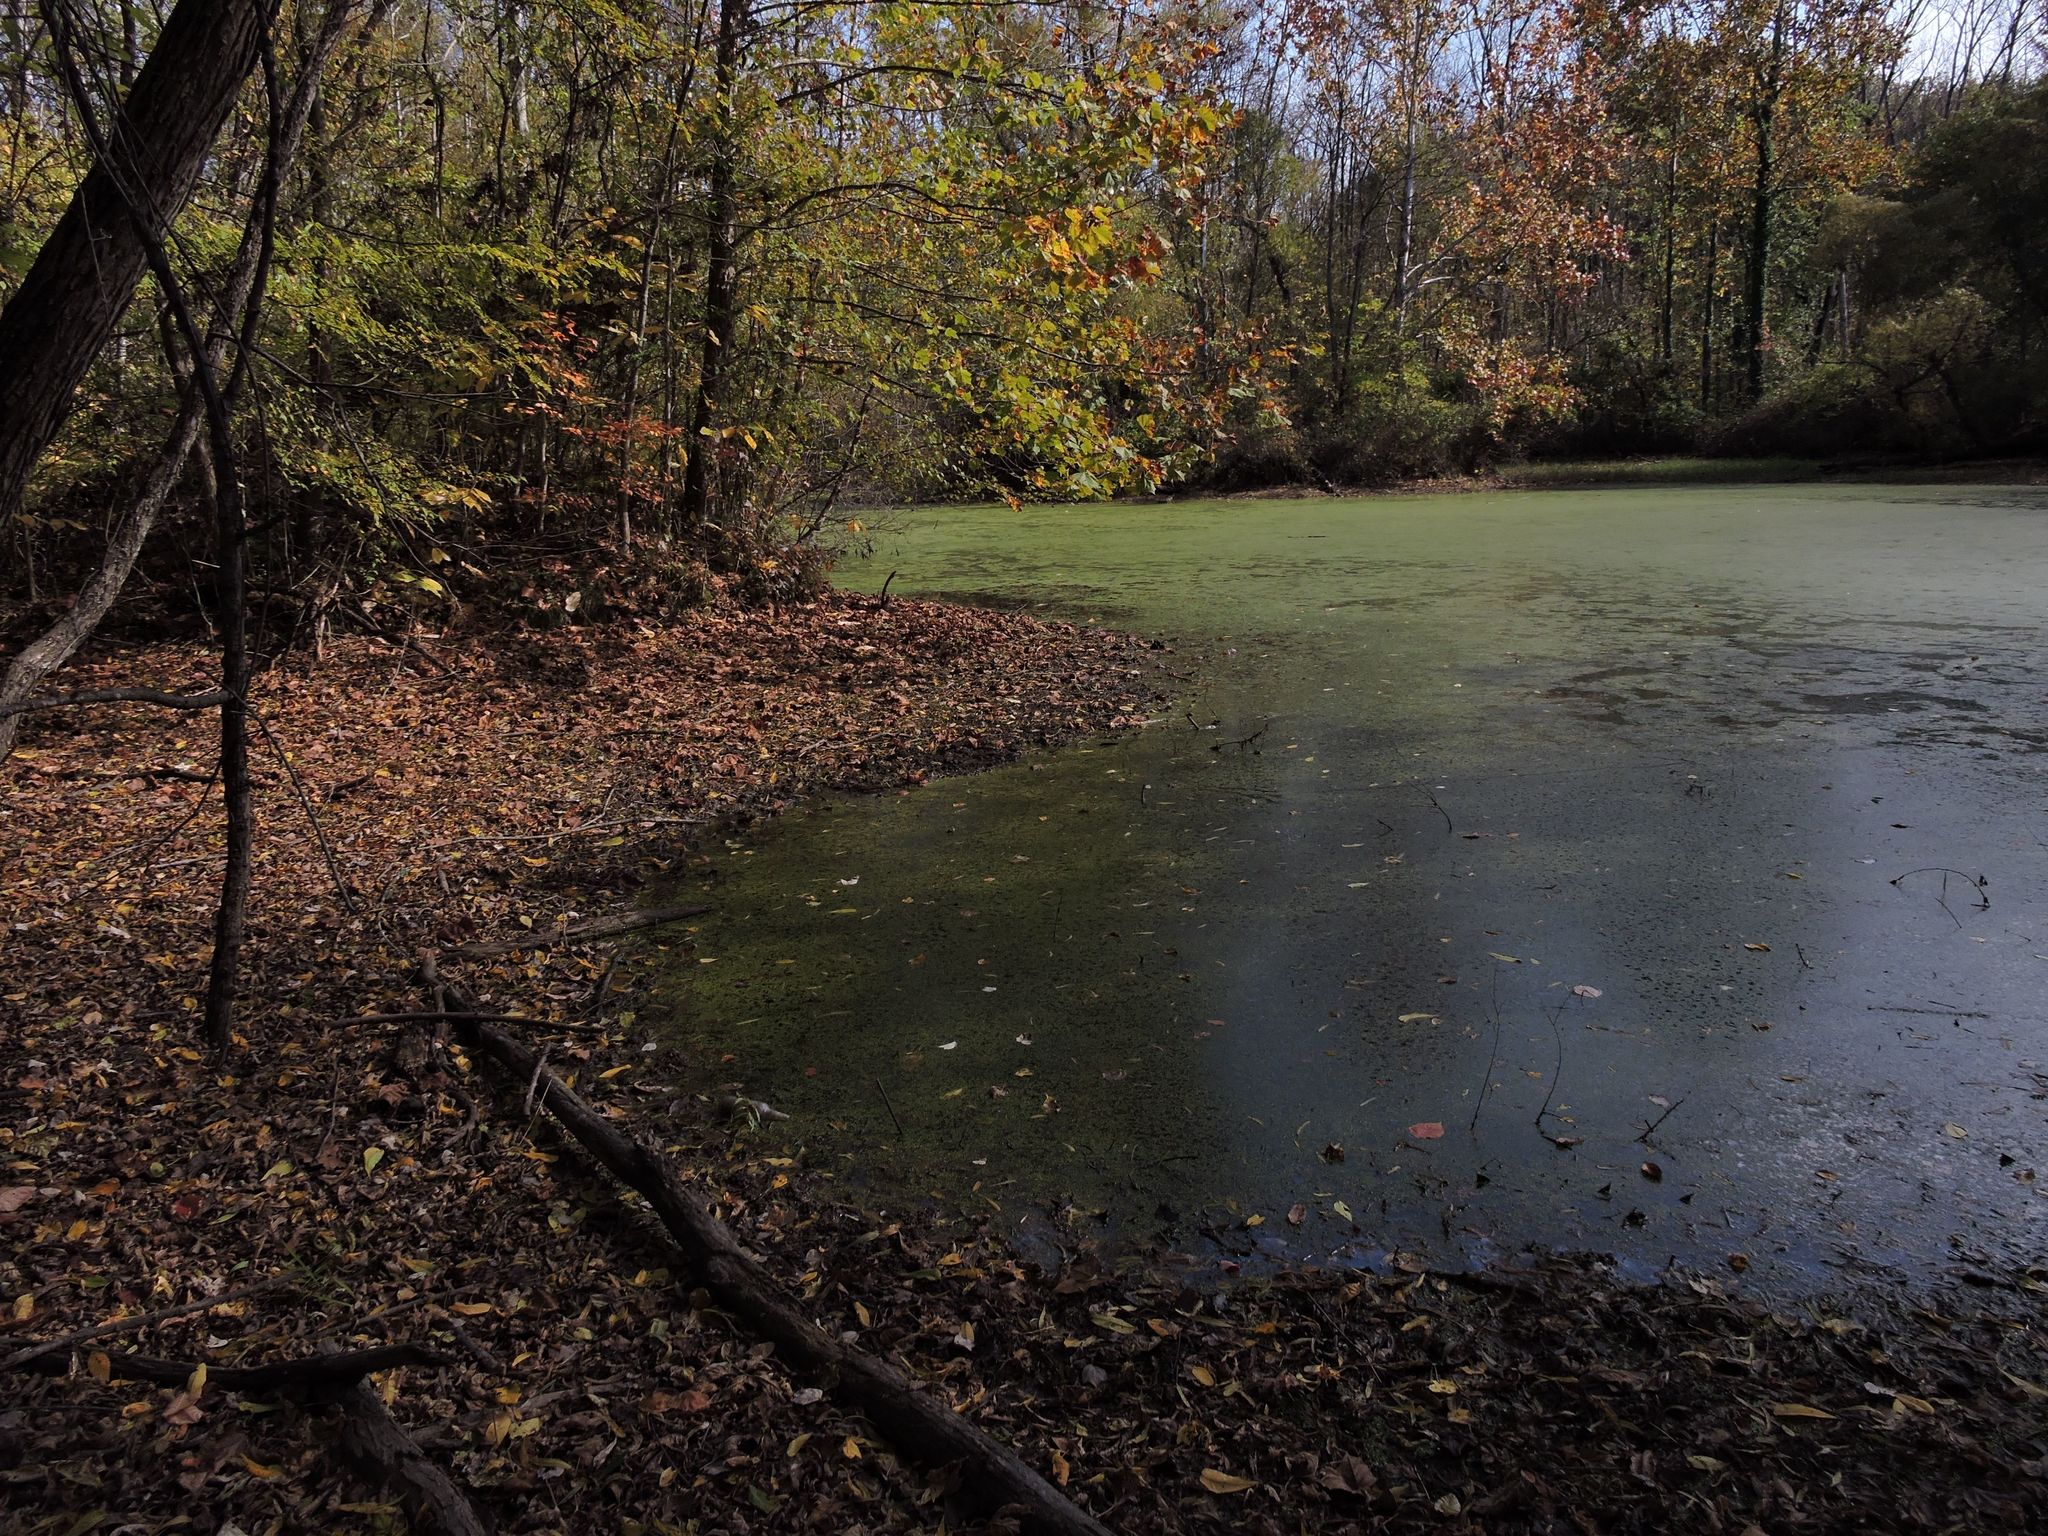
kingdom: Protozoa
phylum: Euglenozoa
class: Euglenoidea
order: Euglenida
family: Euglenaceae
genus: Trachelomonas
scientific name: Trachelomonas
